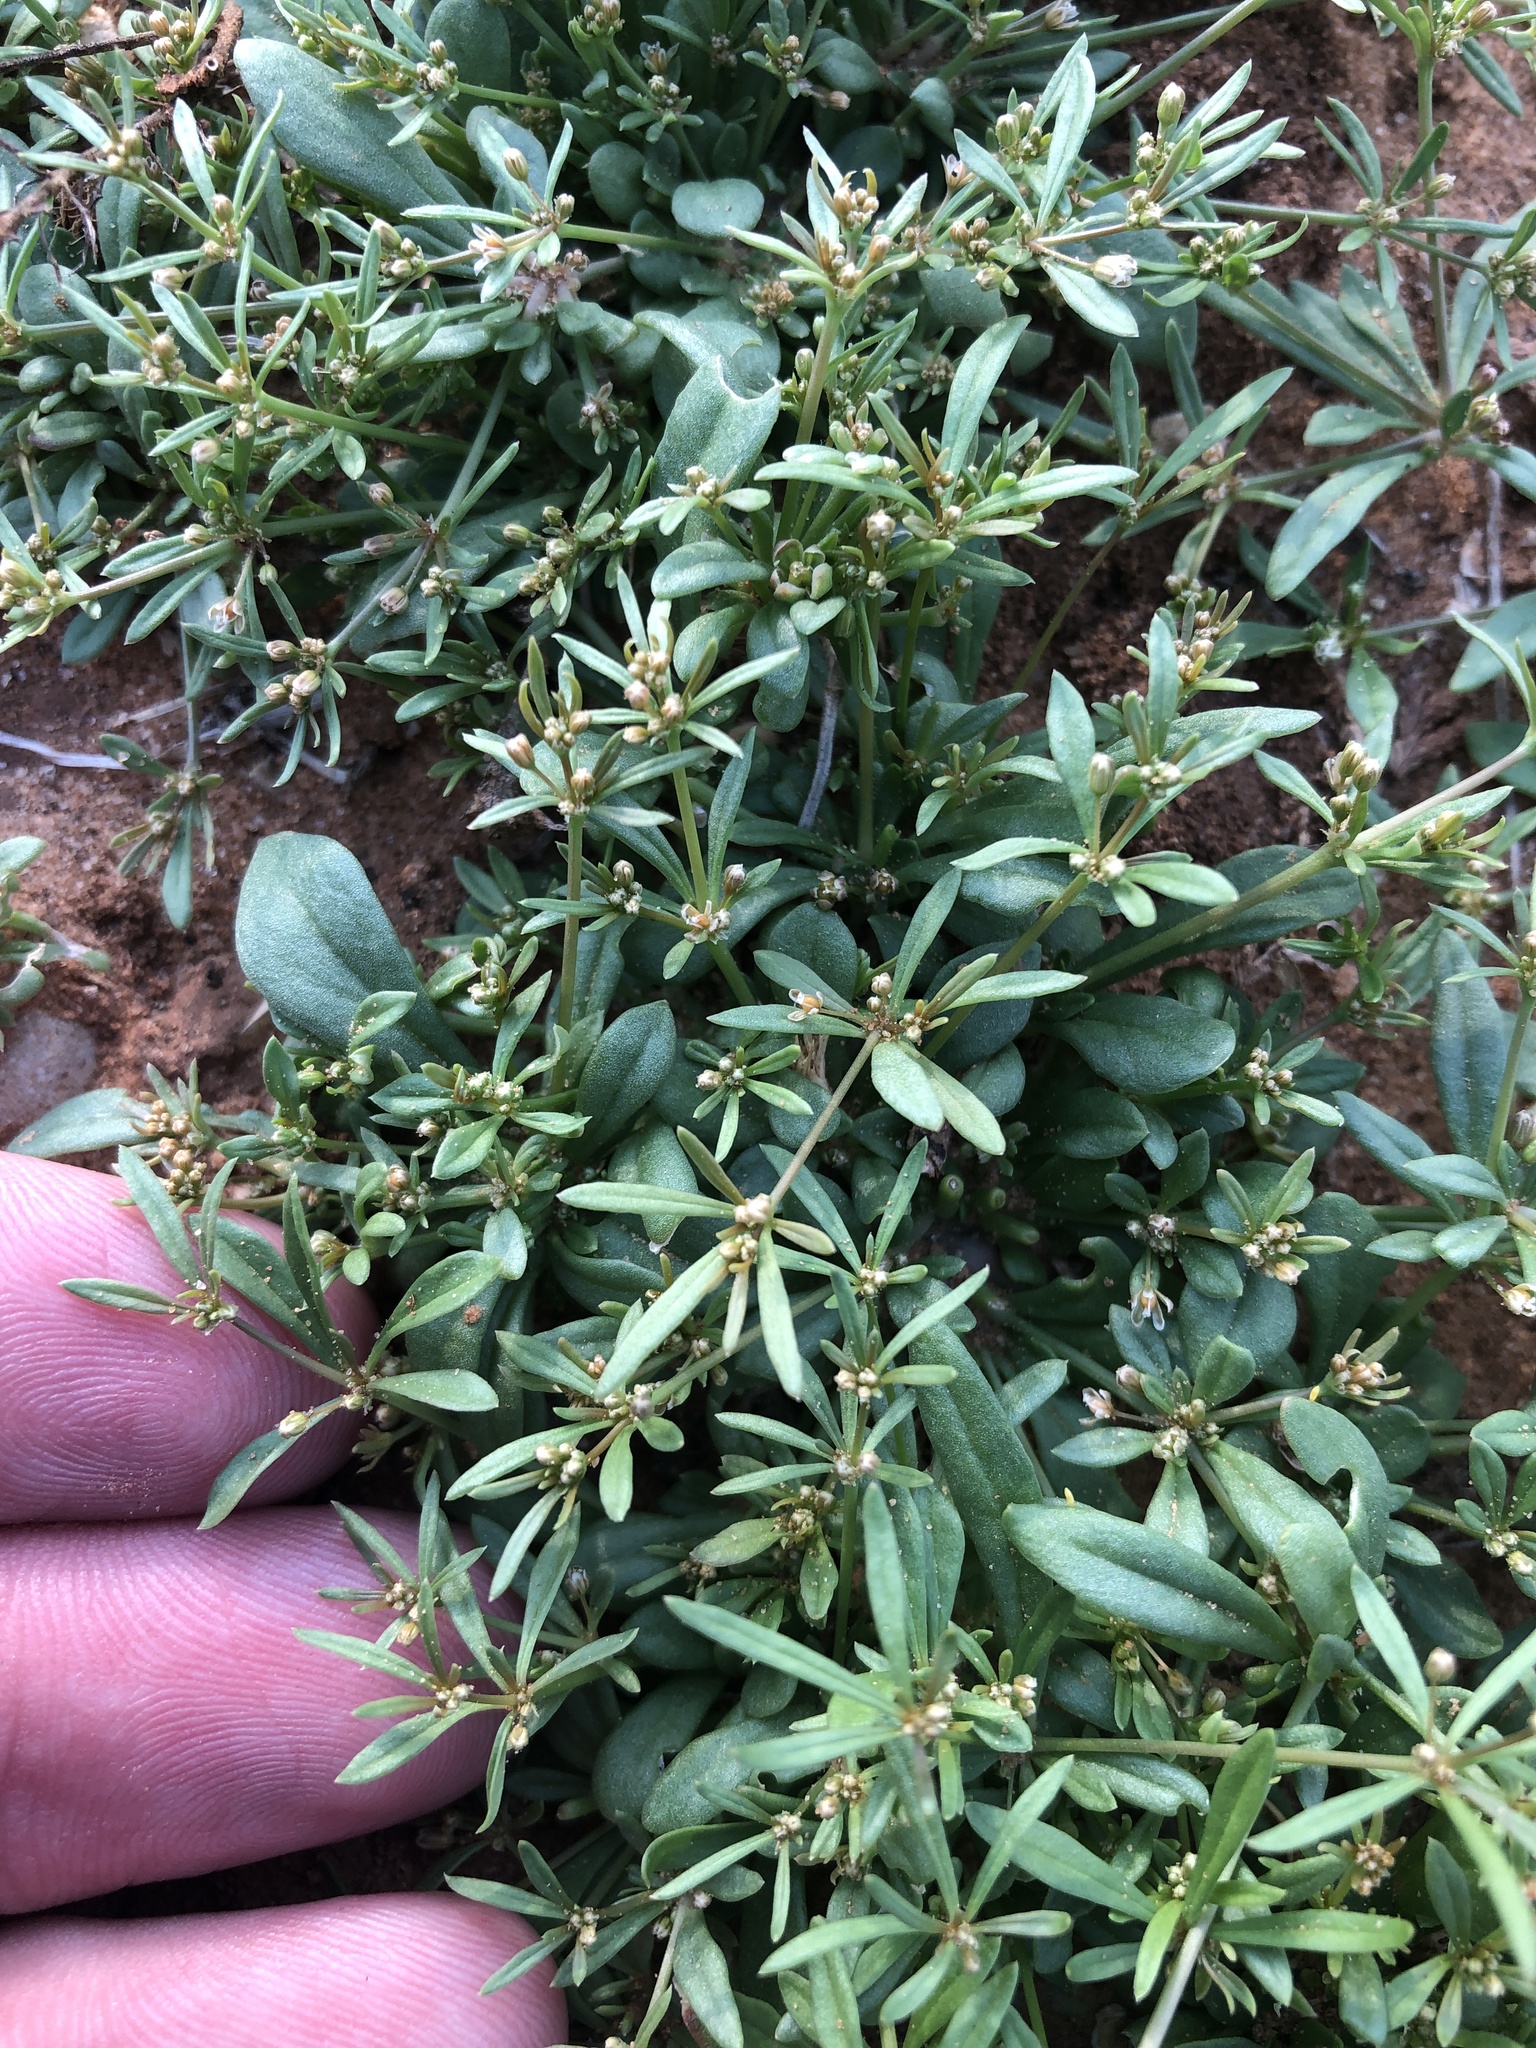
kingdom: Plantae
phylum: Tracheophyta
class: Magnoliopsida
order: Caryophyllales
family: Molluginaceae
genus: Mollugo
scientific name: Mollugo verticillata
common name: Green carpetweed
